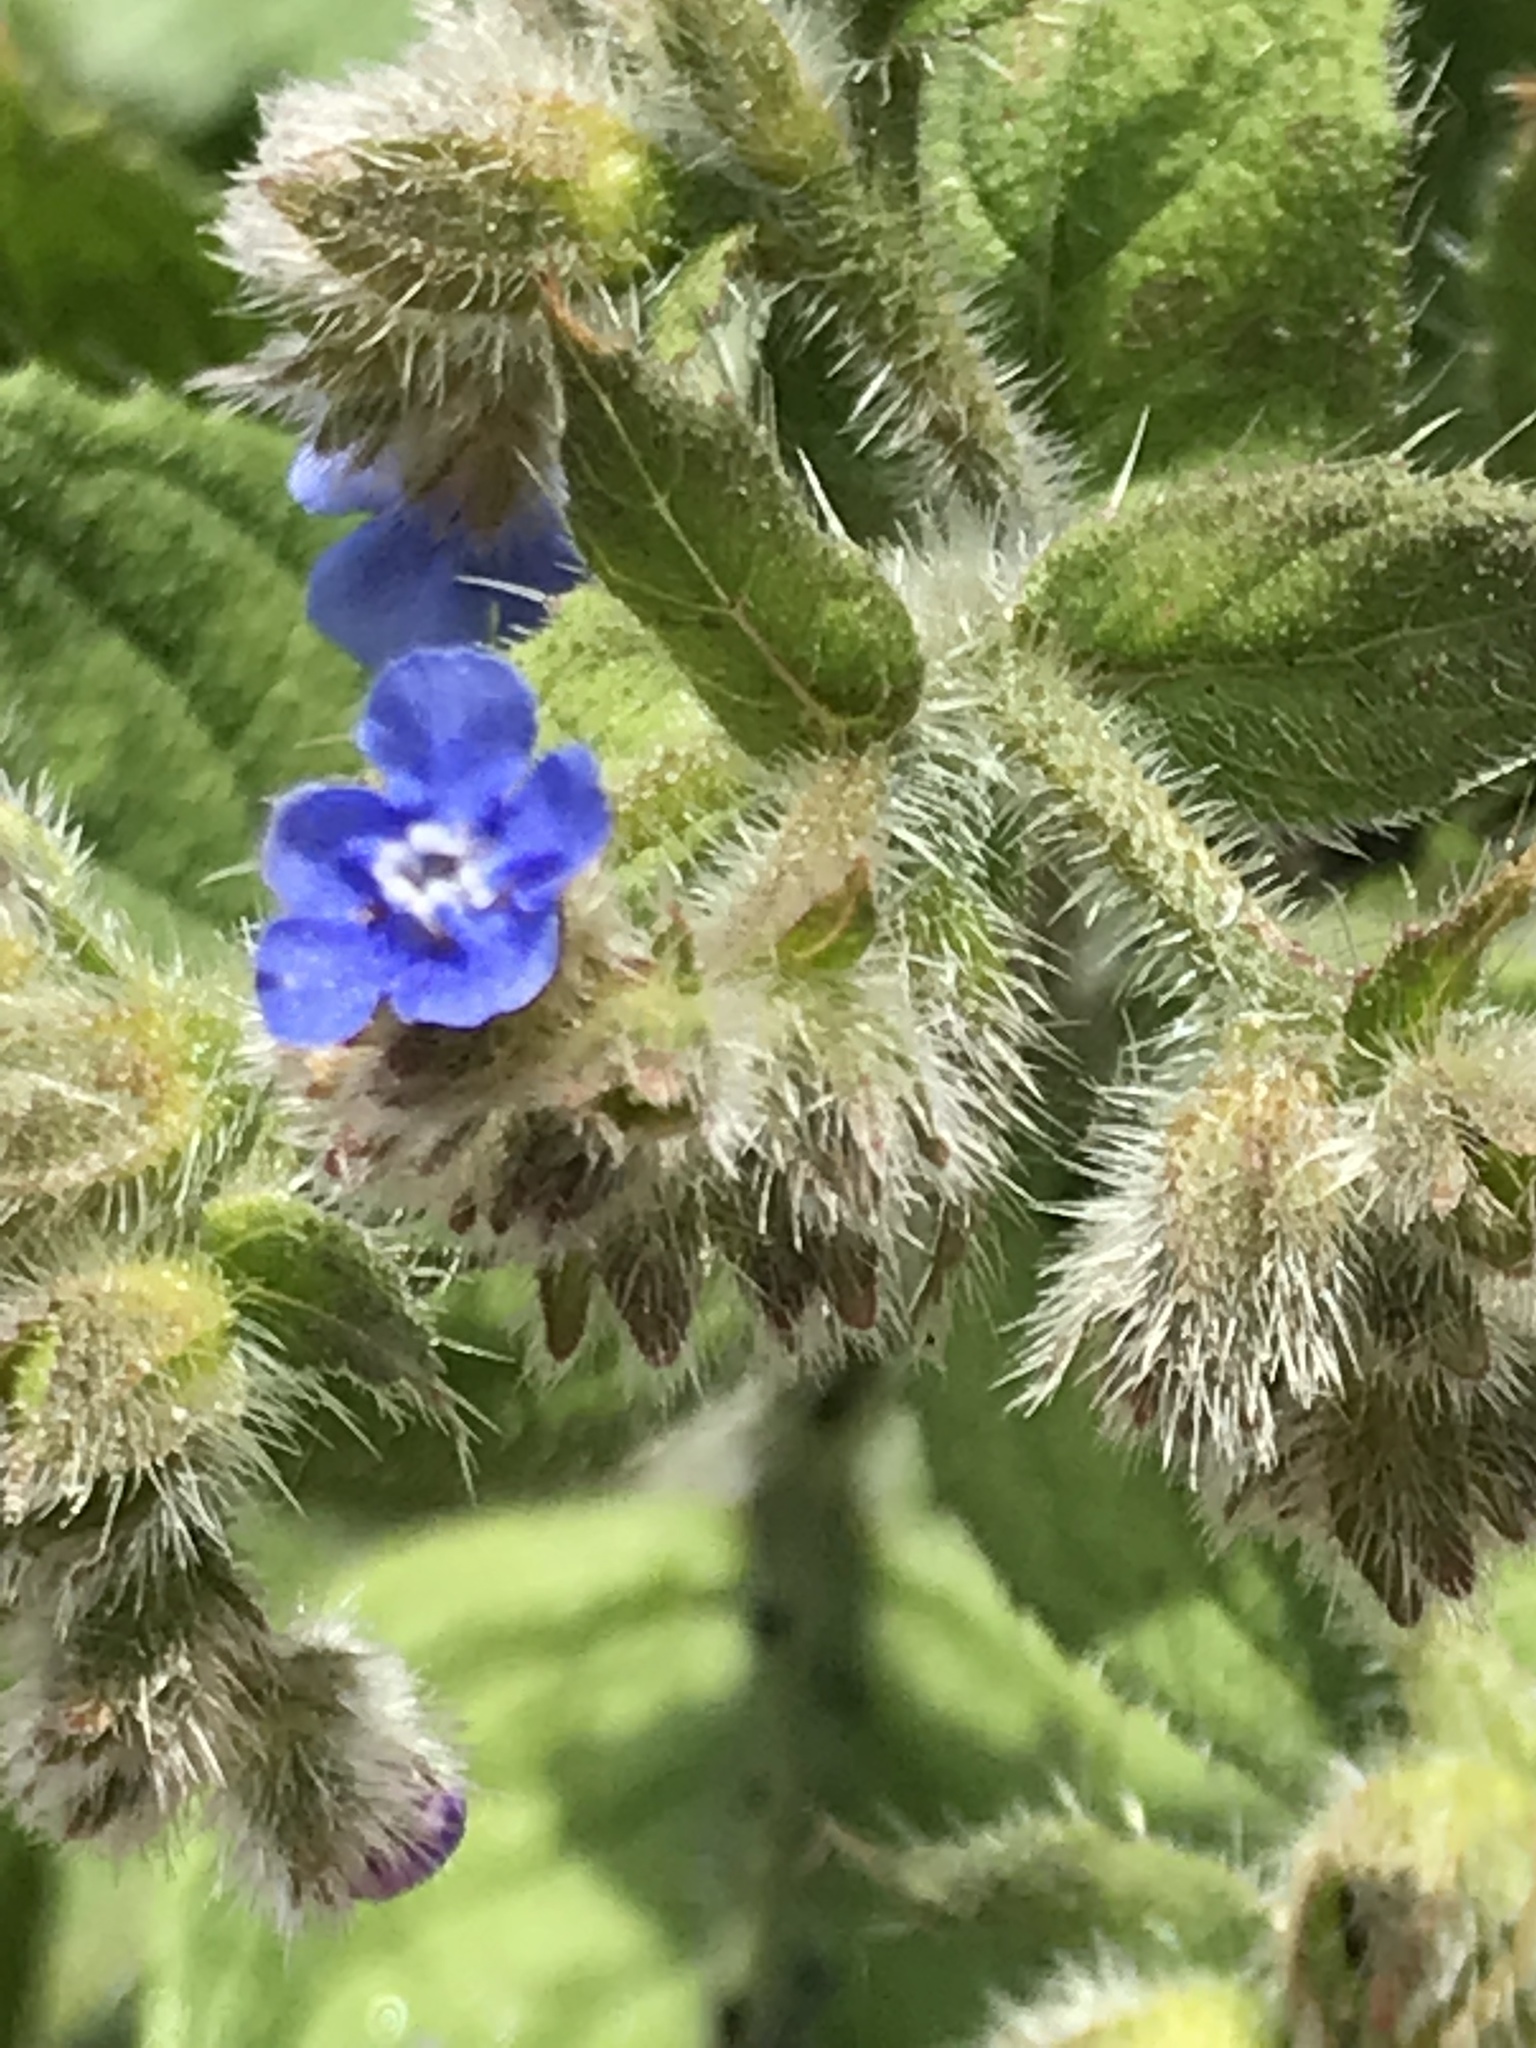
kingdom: Plantae
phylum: Tracheophyta
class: Magnoliopsida
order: Boraginales
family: Boraginaceae
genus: Pentaglottis
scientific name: Pentaglottis sempervirens
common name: Green alkanet
